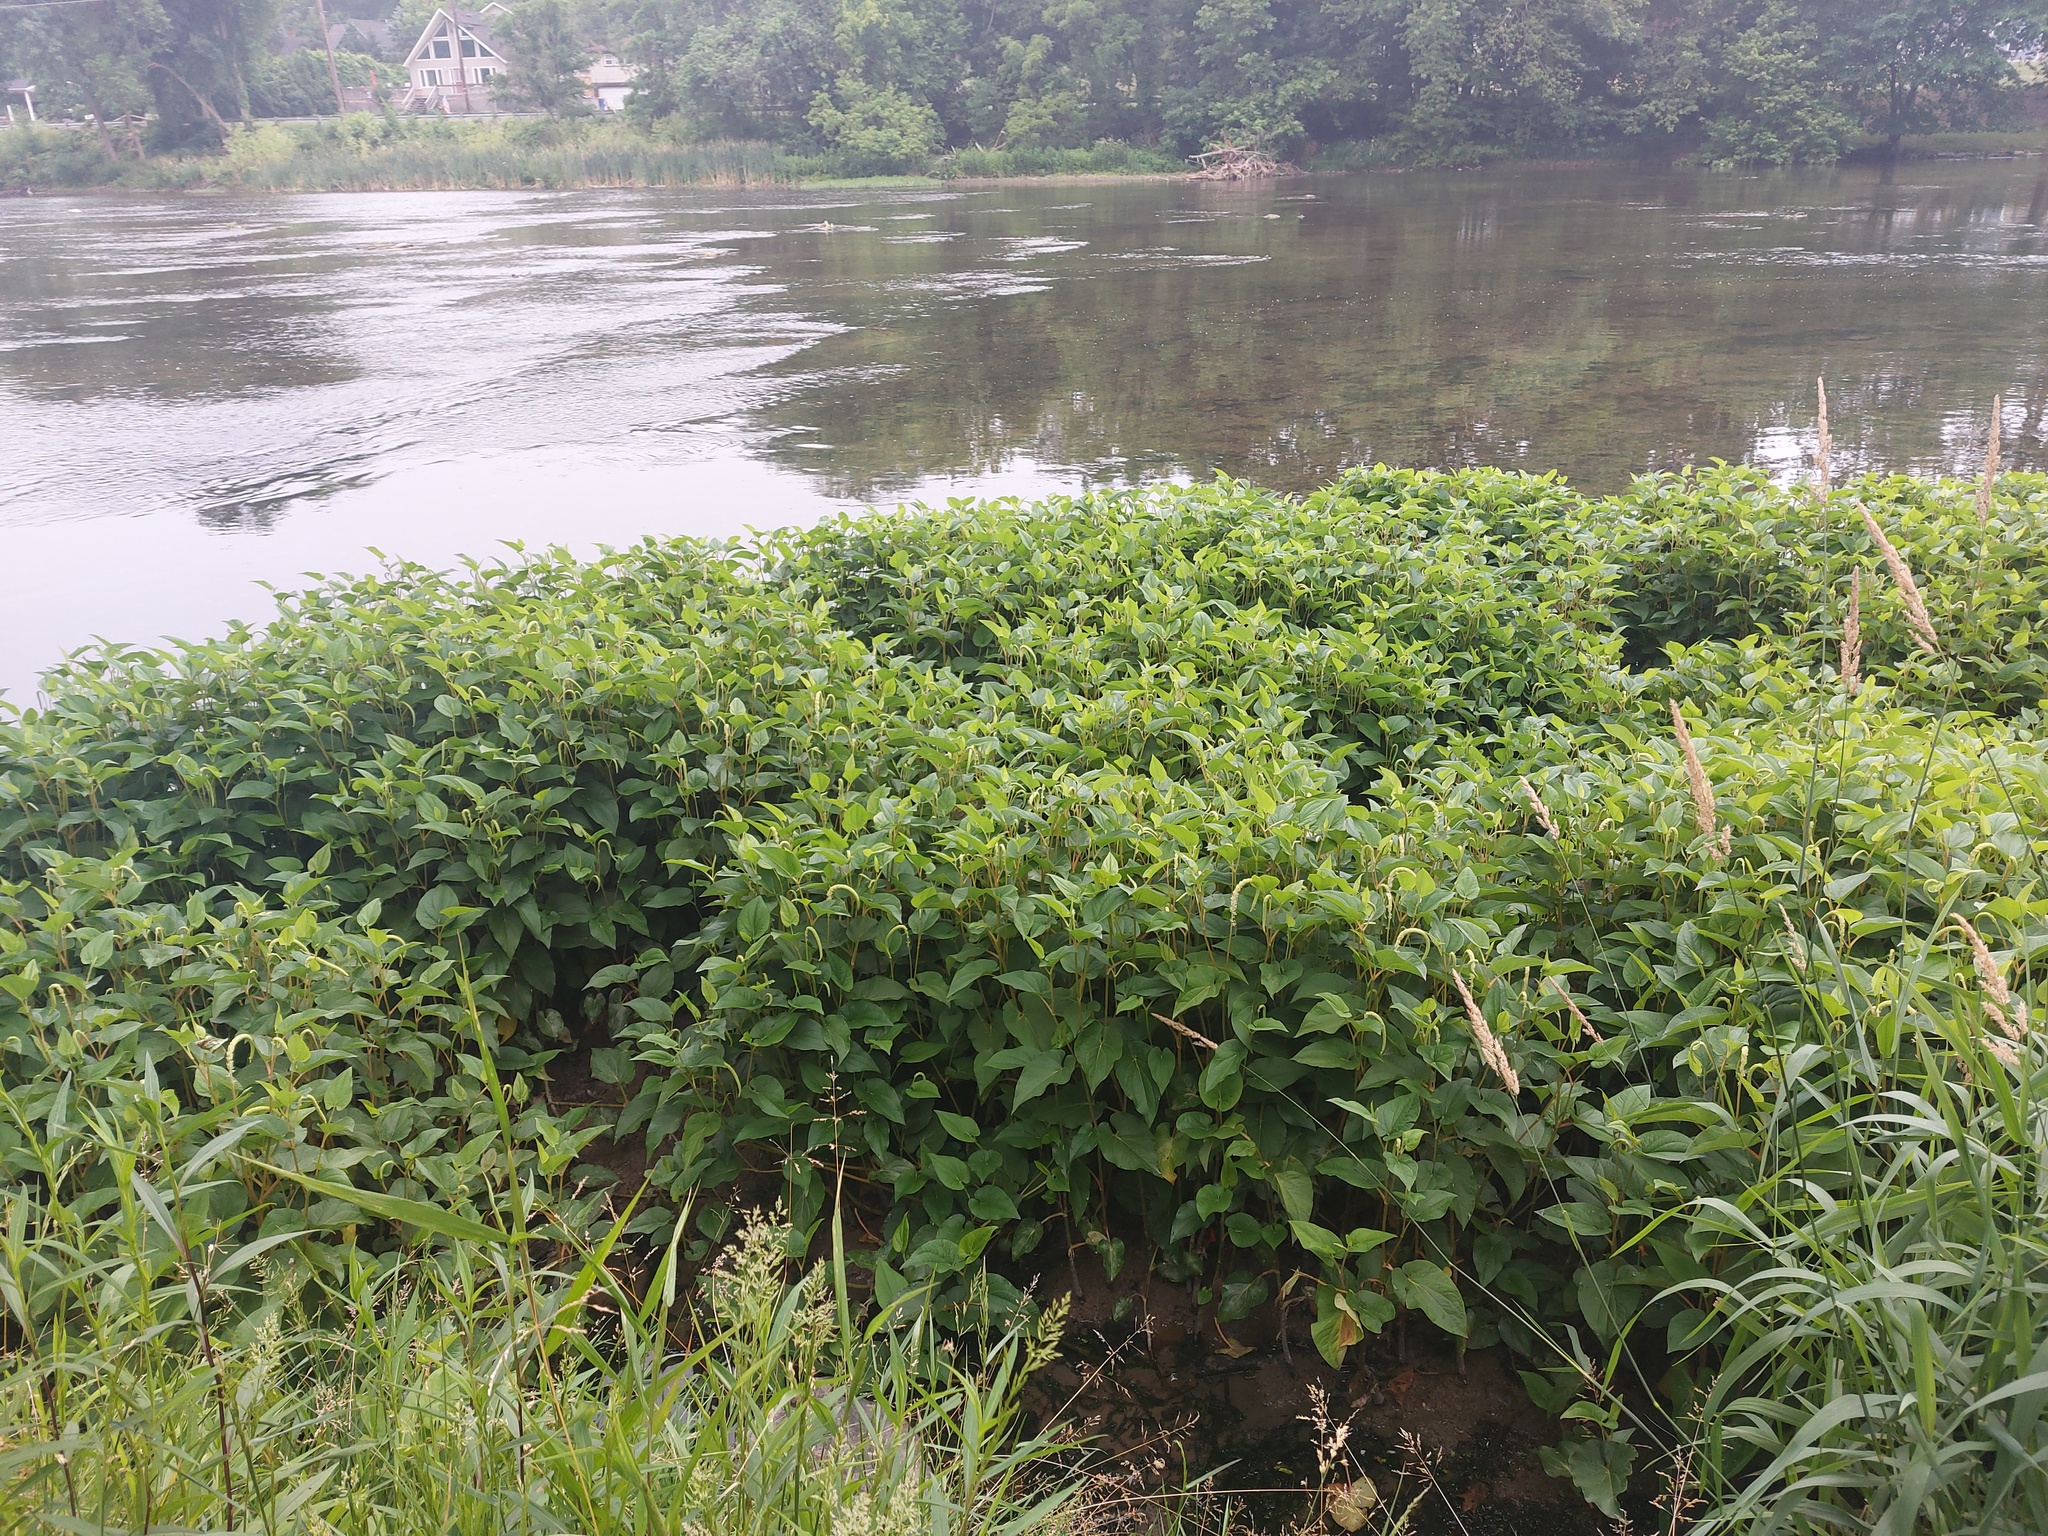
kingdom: Plantae
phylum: Tracheophyta
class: Magnoliopsida
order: Piperales
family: Saururaceae
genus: Saururus
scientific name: Saururus cernuus
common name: Lizard's-tail
